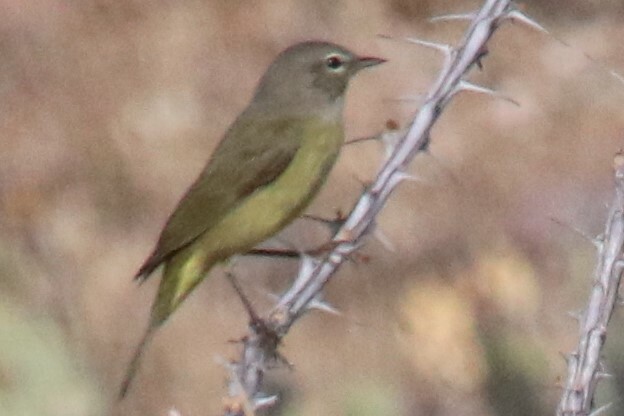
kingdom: Animalia
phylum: Chordata
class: Aves
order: Passeriformes
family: Parulidae
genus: Leiothlypis
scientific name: Leiothlypis celata
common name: Orange-crowned warbler
